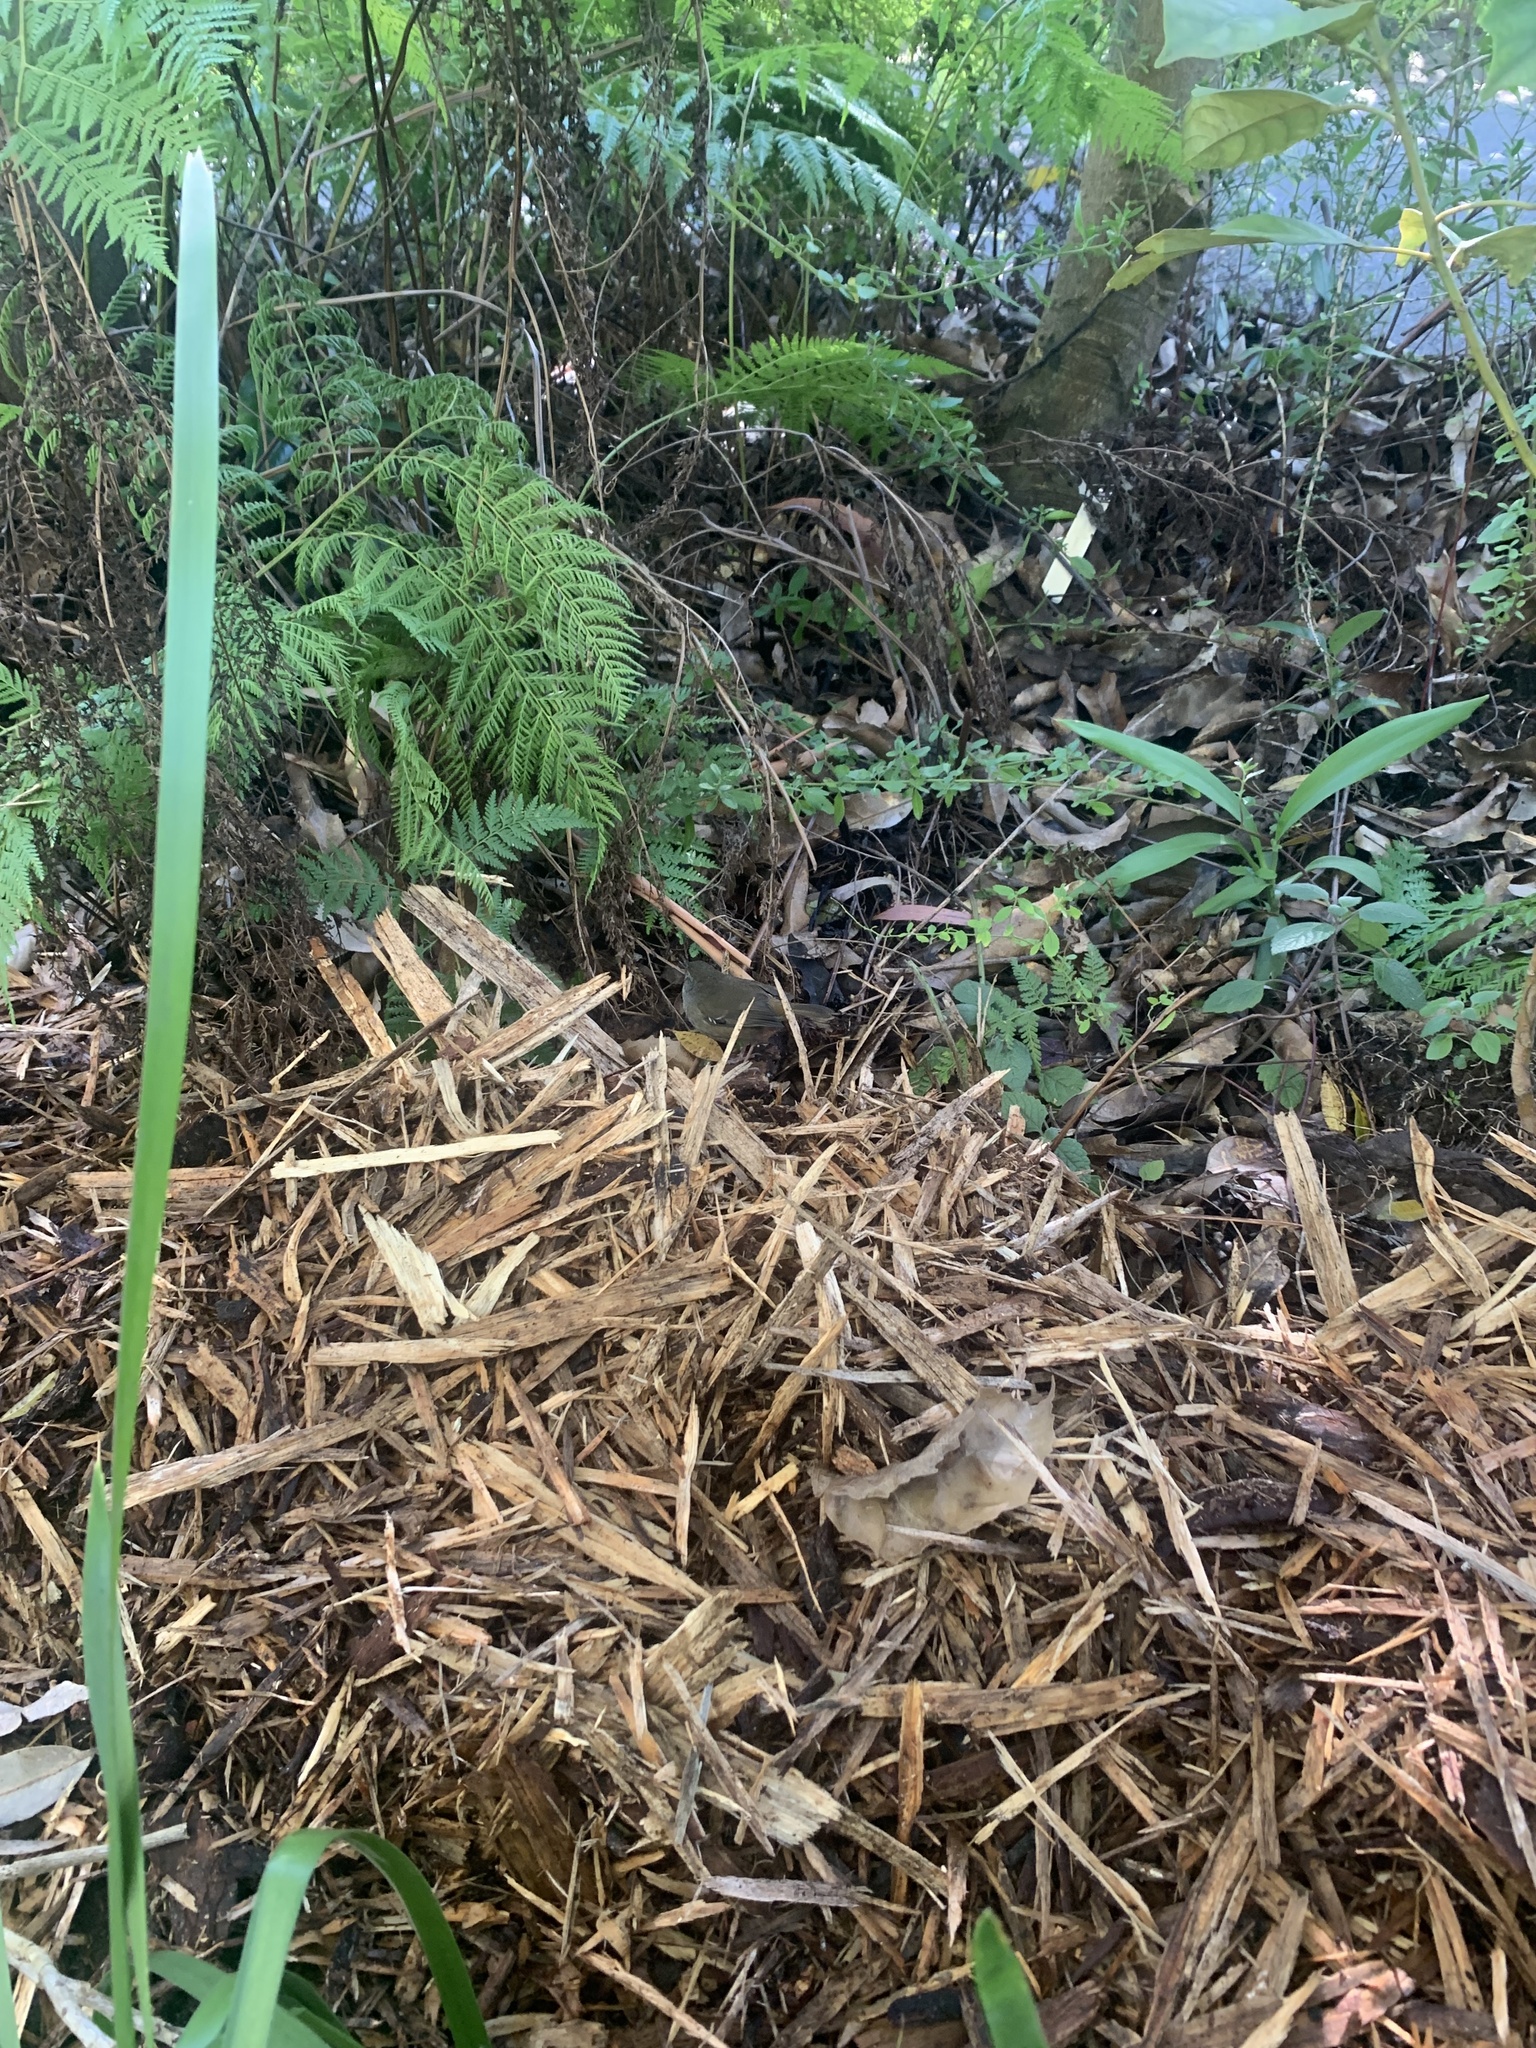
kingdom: Animalia
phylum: Chordata
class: Aves
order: Passeriformes
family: Acanthizidae
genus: Sericornis
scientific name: Sericornis frontalis
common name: White-browed scrubwren
